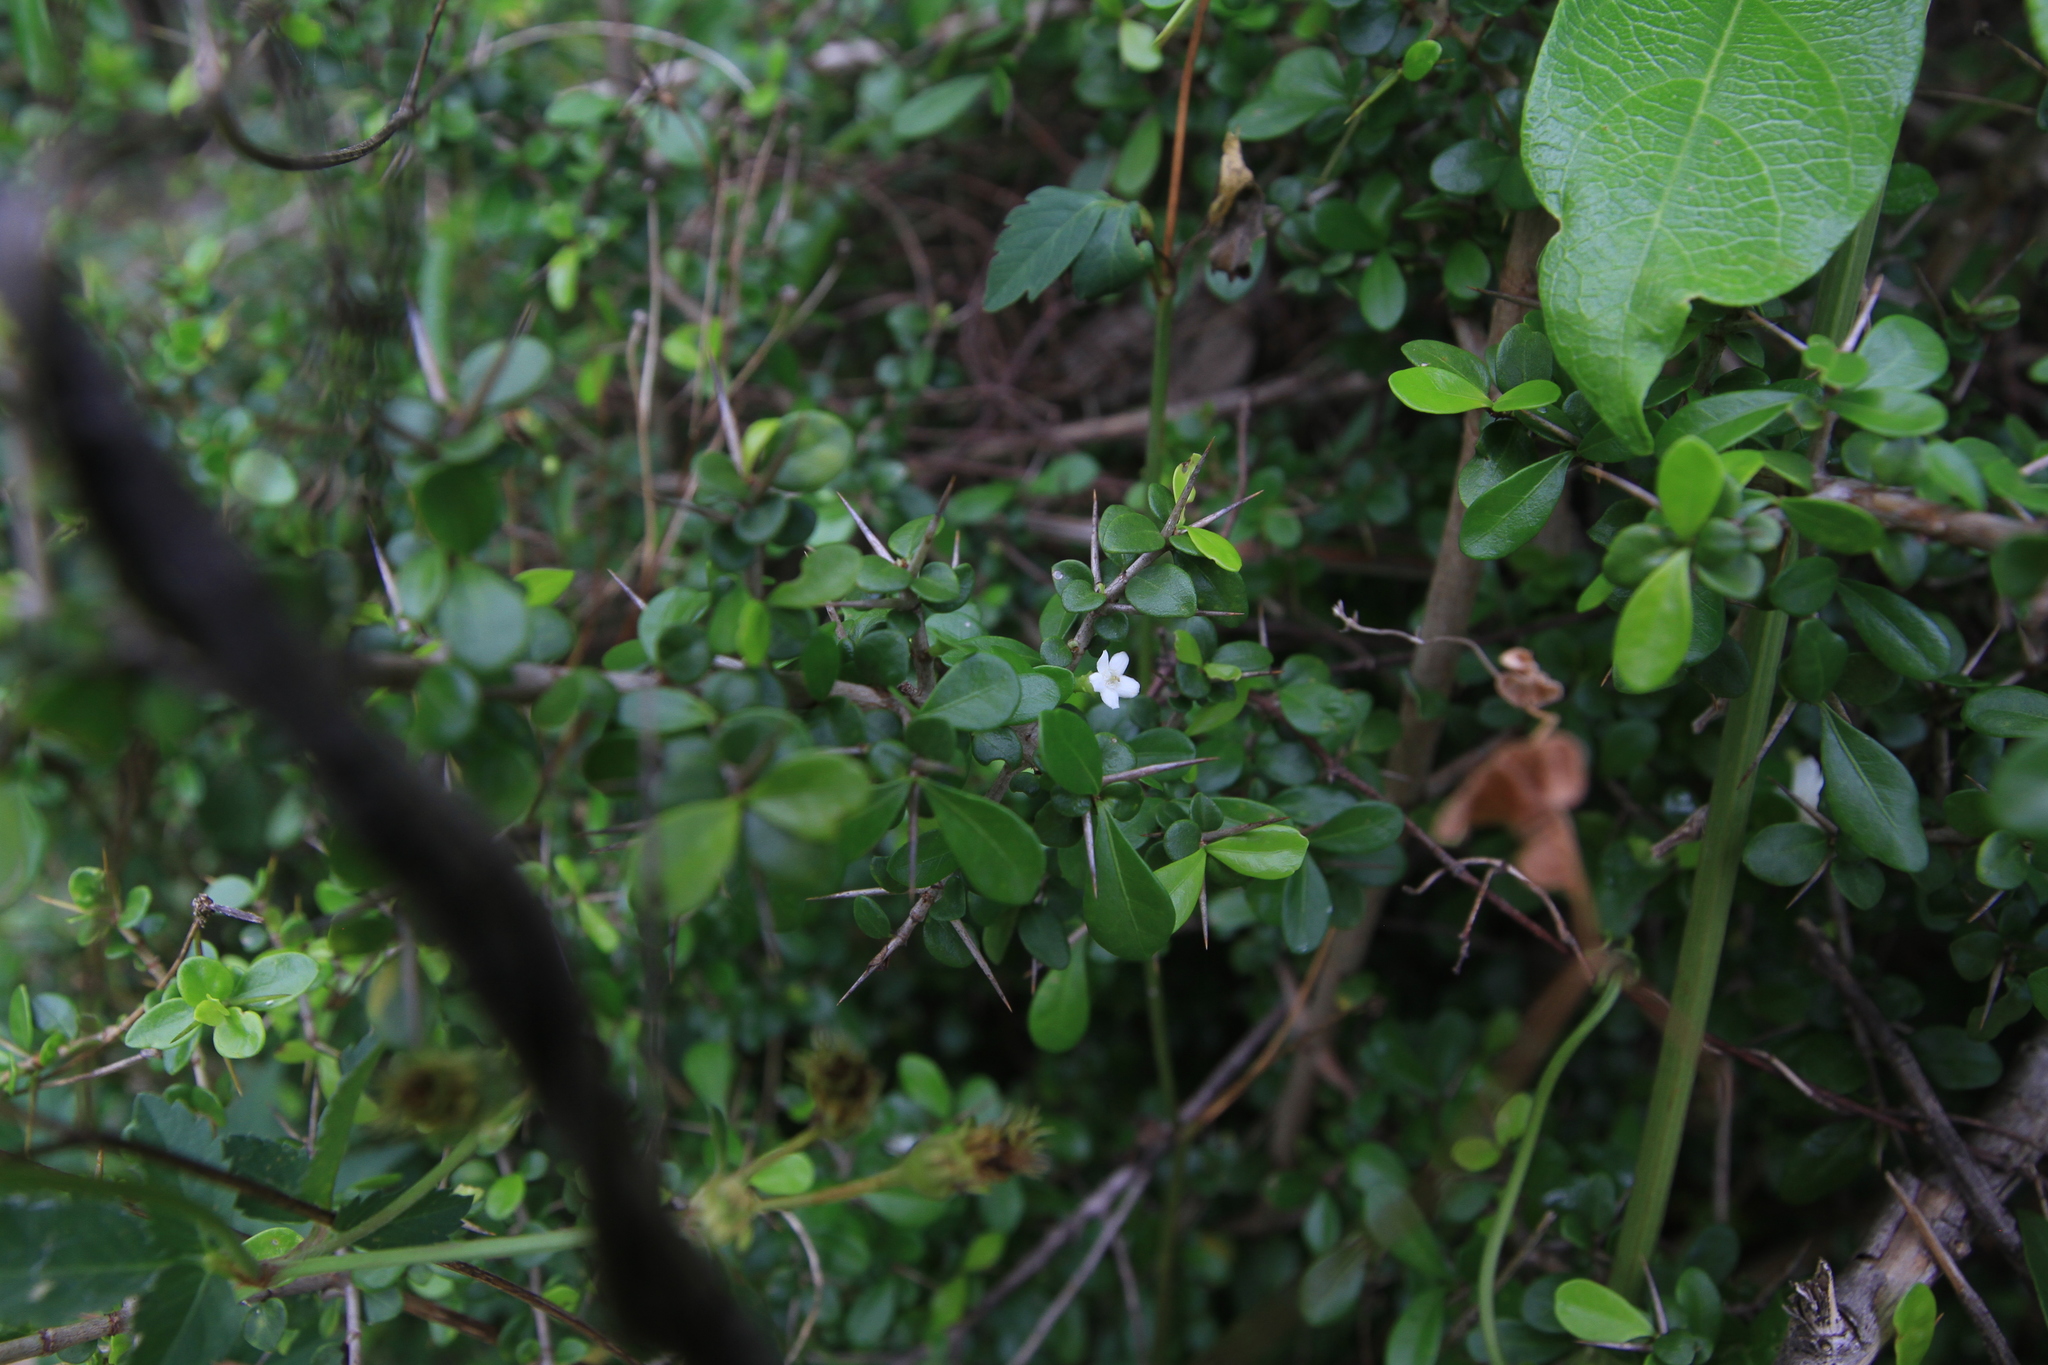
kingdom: Plantae
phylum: Tracheophyta
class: Magnoliopsida
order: Gentianales
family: Rubiaceae
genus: Randia
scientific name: Randia aculeata
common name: Inkberry
